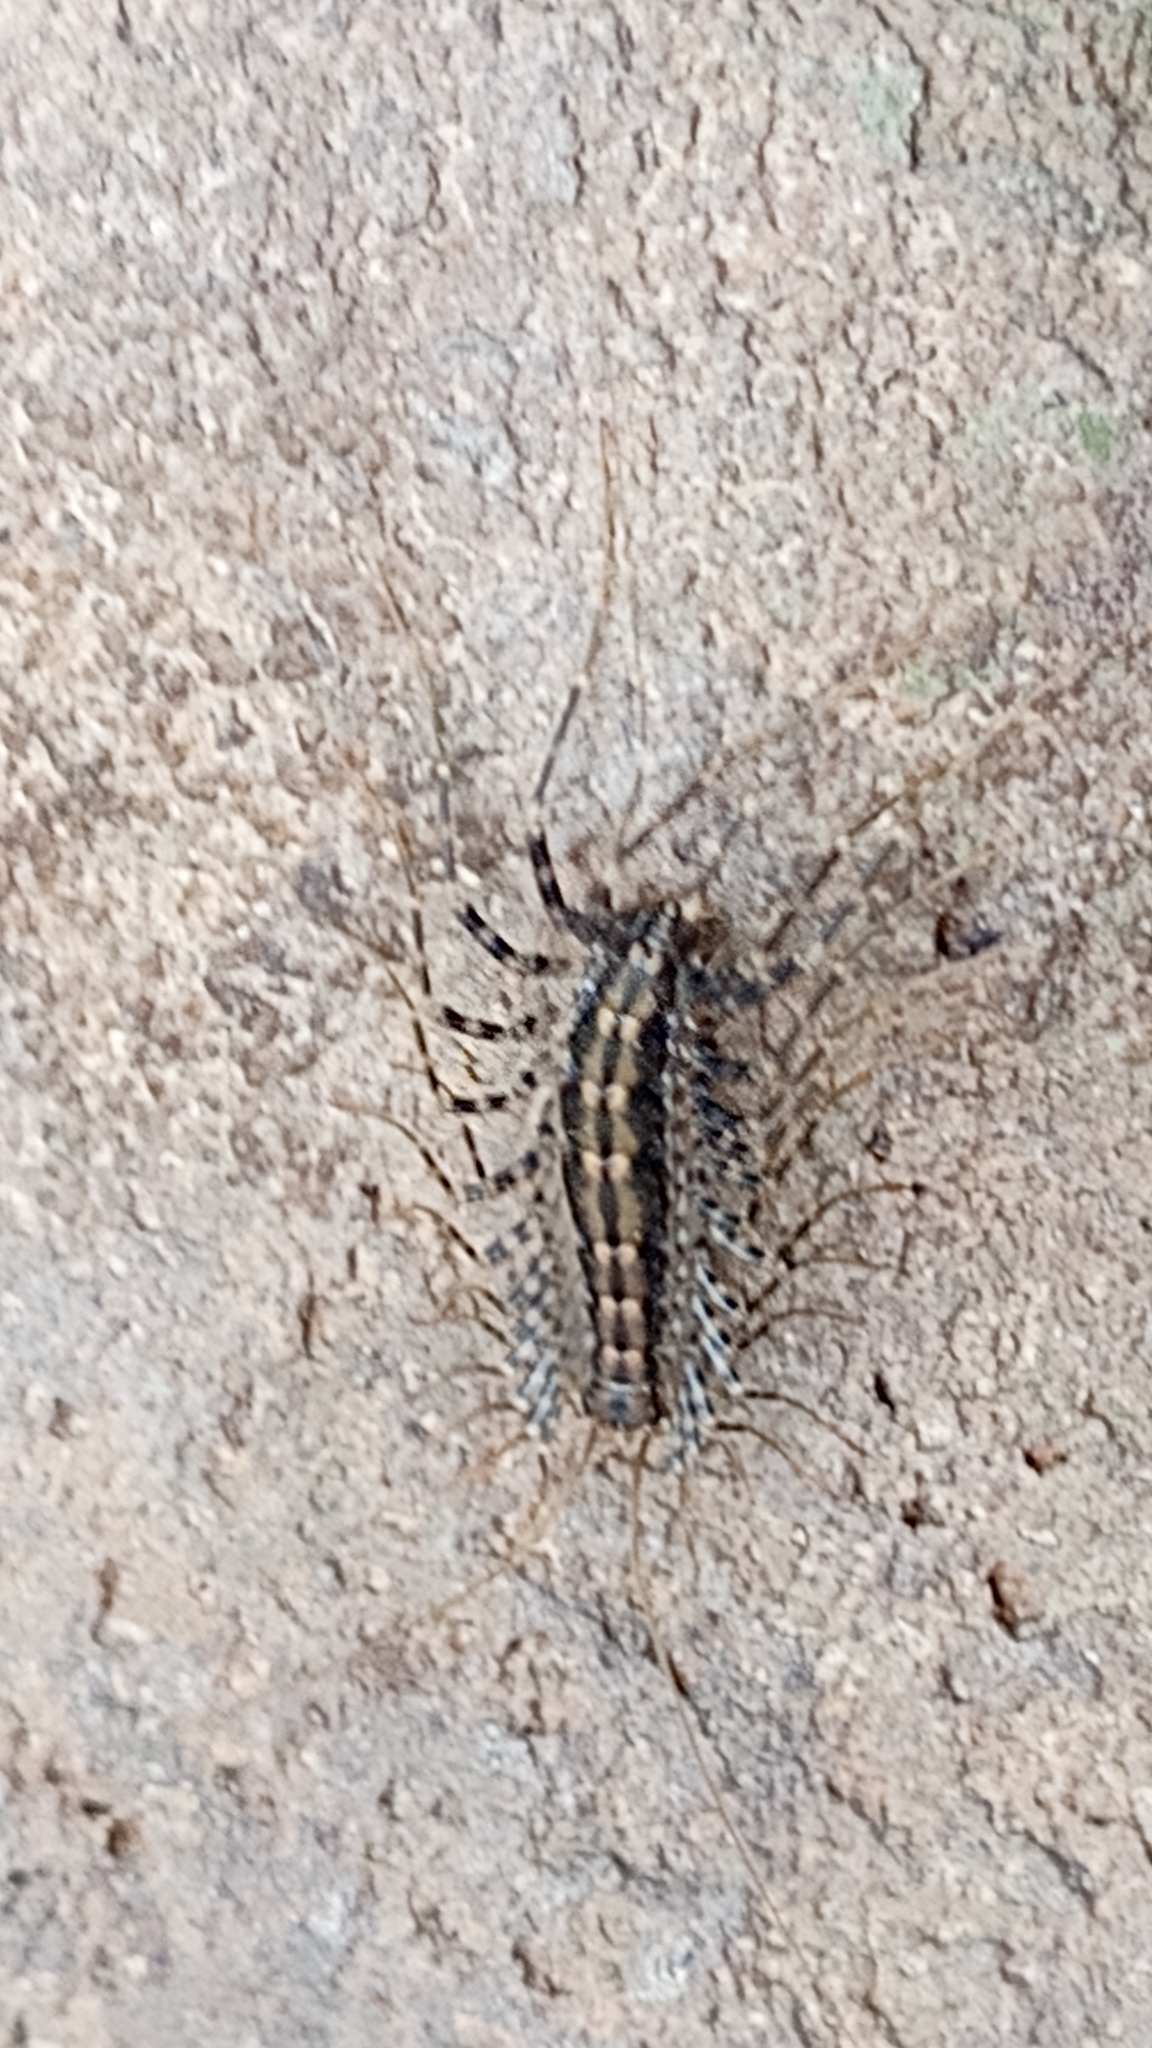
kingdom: Animalia
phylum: Arthropoda
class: Chilopoda
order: Scutigeromorpha
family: Scutigeridae
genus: Scutigera
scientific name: Scutigera coleoptrata
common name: House centipede
